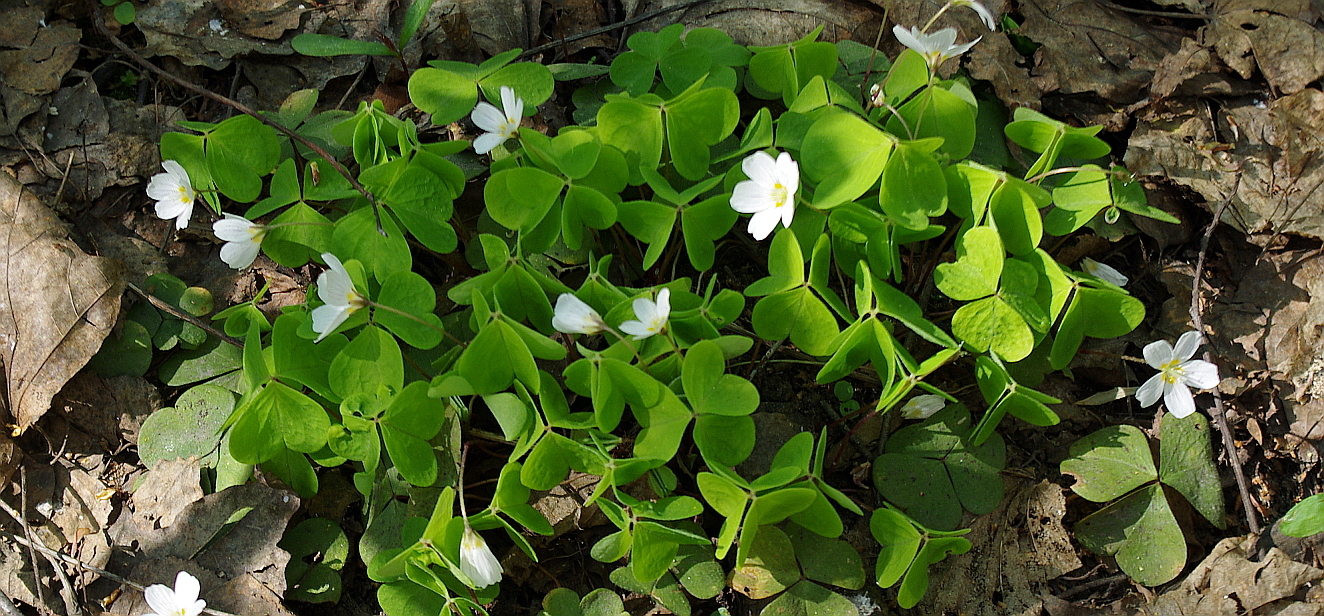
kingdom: Plantae
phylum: Tracheophyta
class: Magnoliopsida
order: Oxalidales
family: Oxalidaceae
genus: Oxalis
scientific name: Oxalis acetosella
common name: Wood-sorrel
